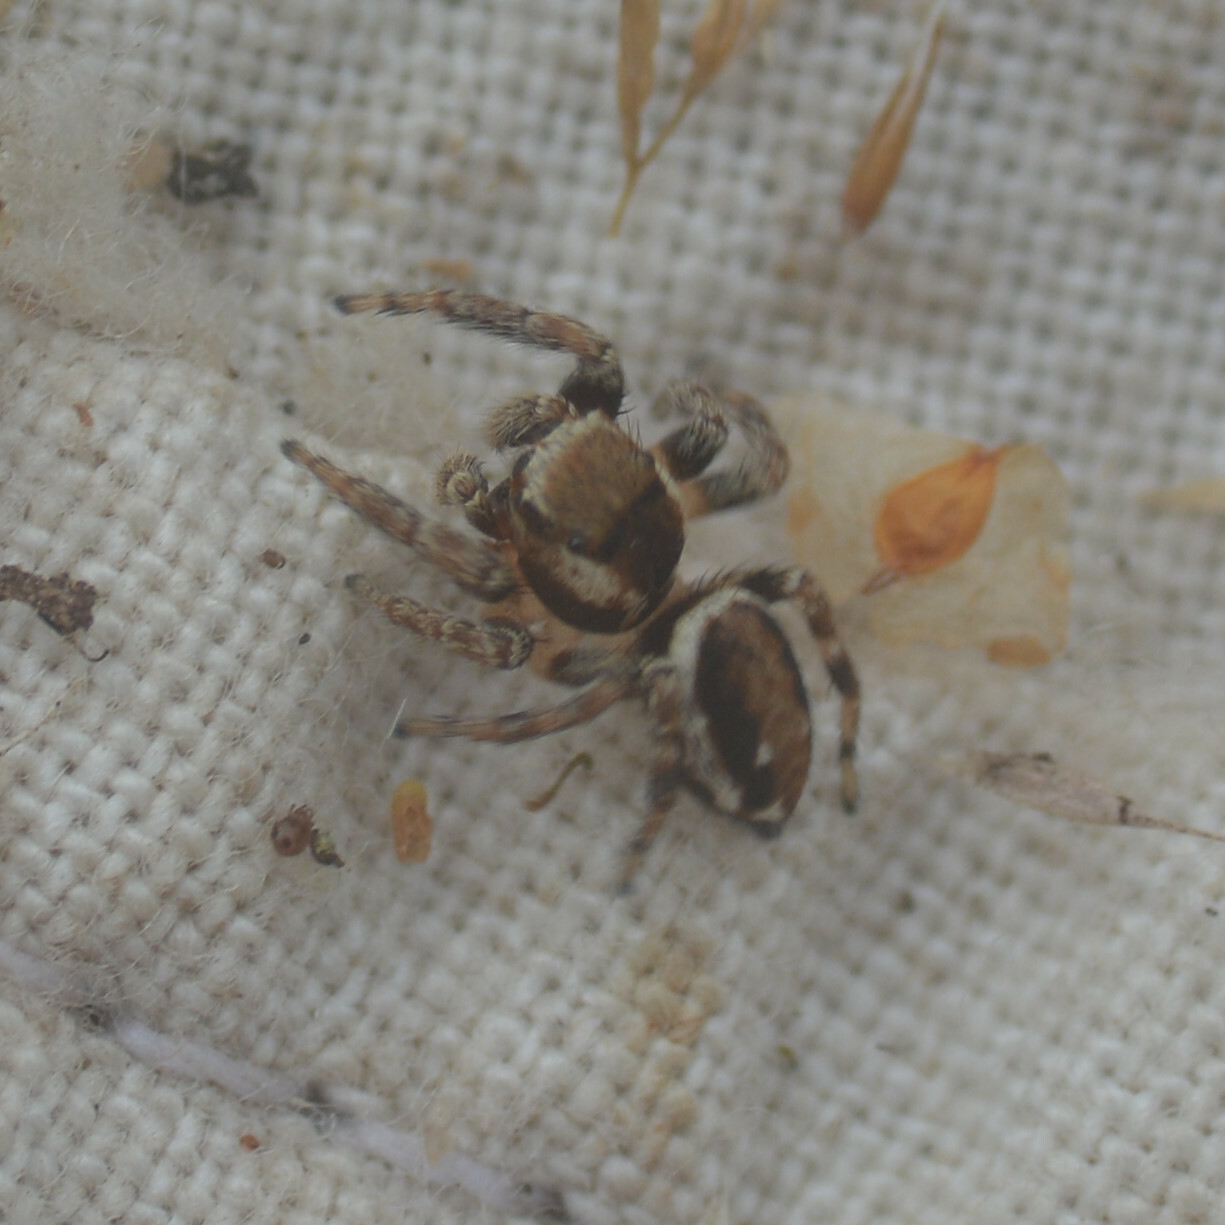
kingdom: Animalia
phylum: Arthropoda
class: Arachnida
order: Araneae
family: Salticidae
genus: Evarcha
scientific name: Evarcha falcata
